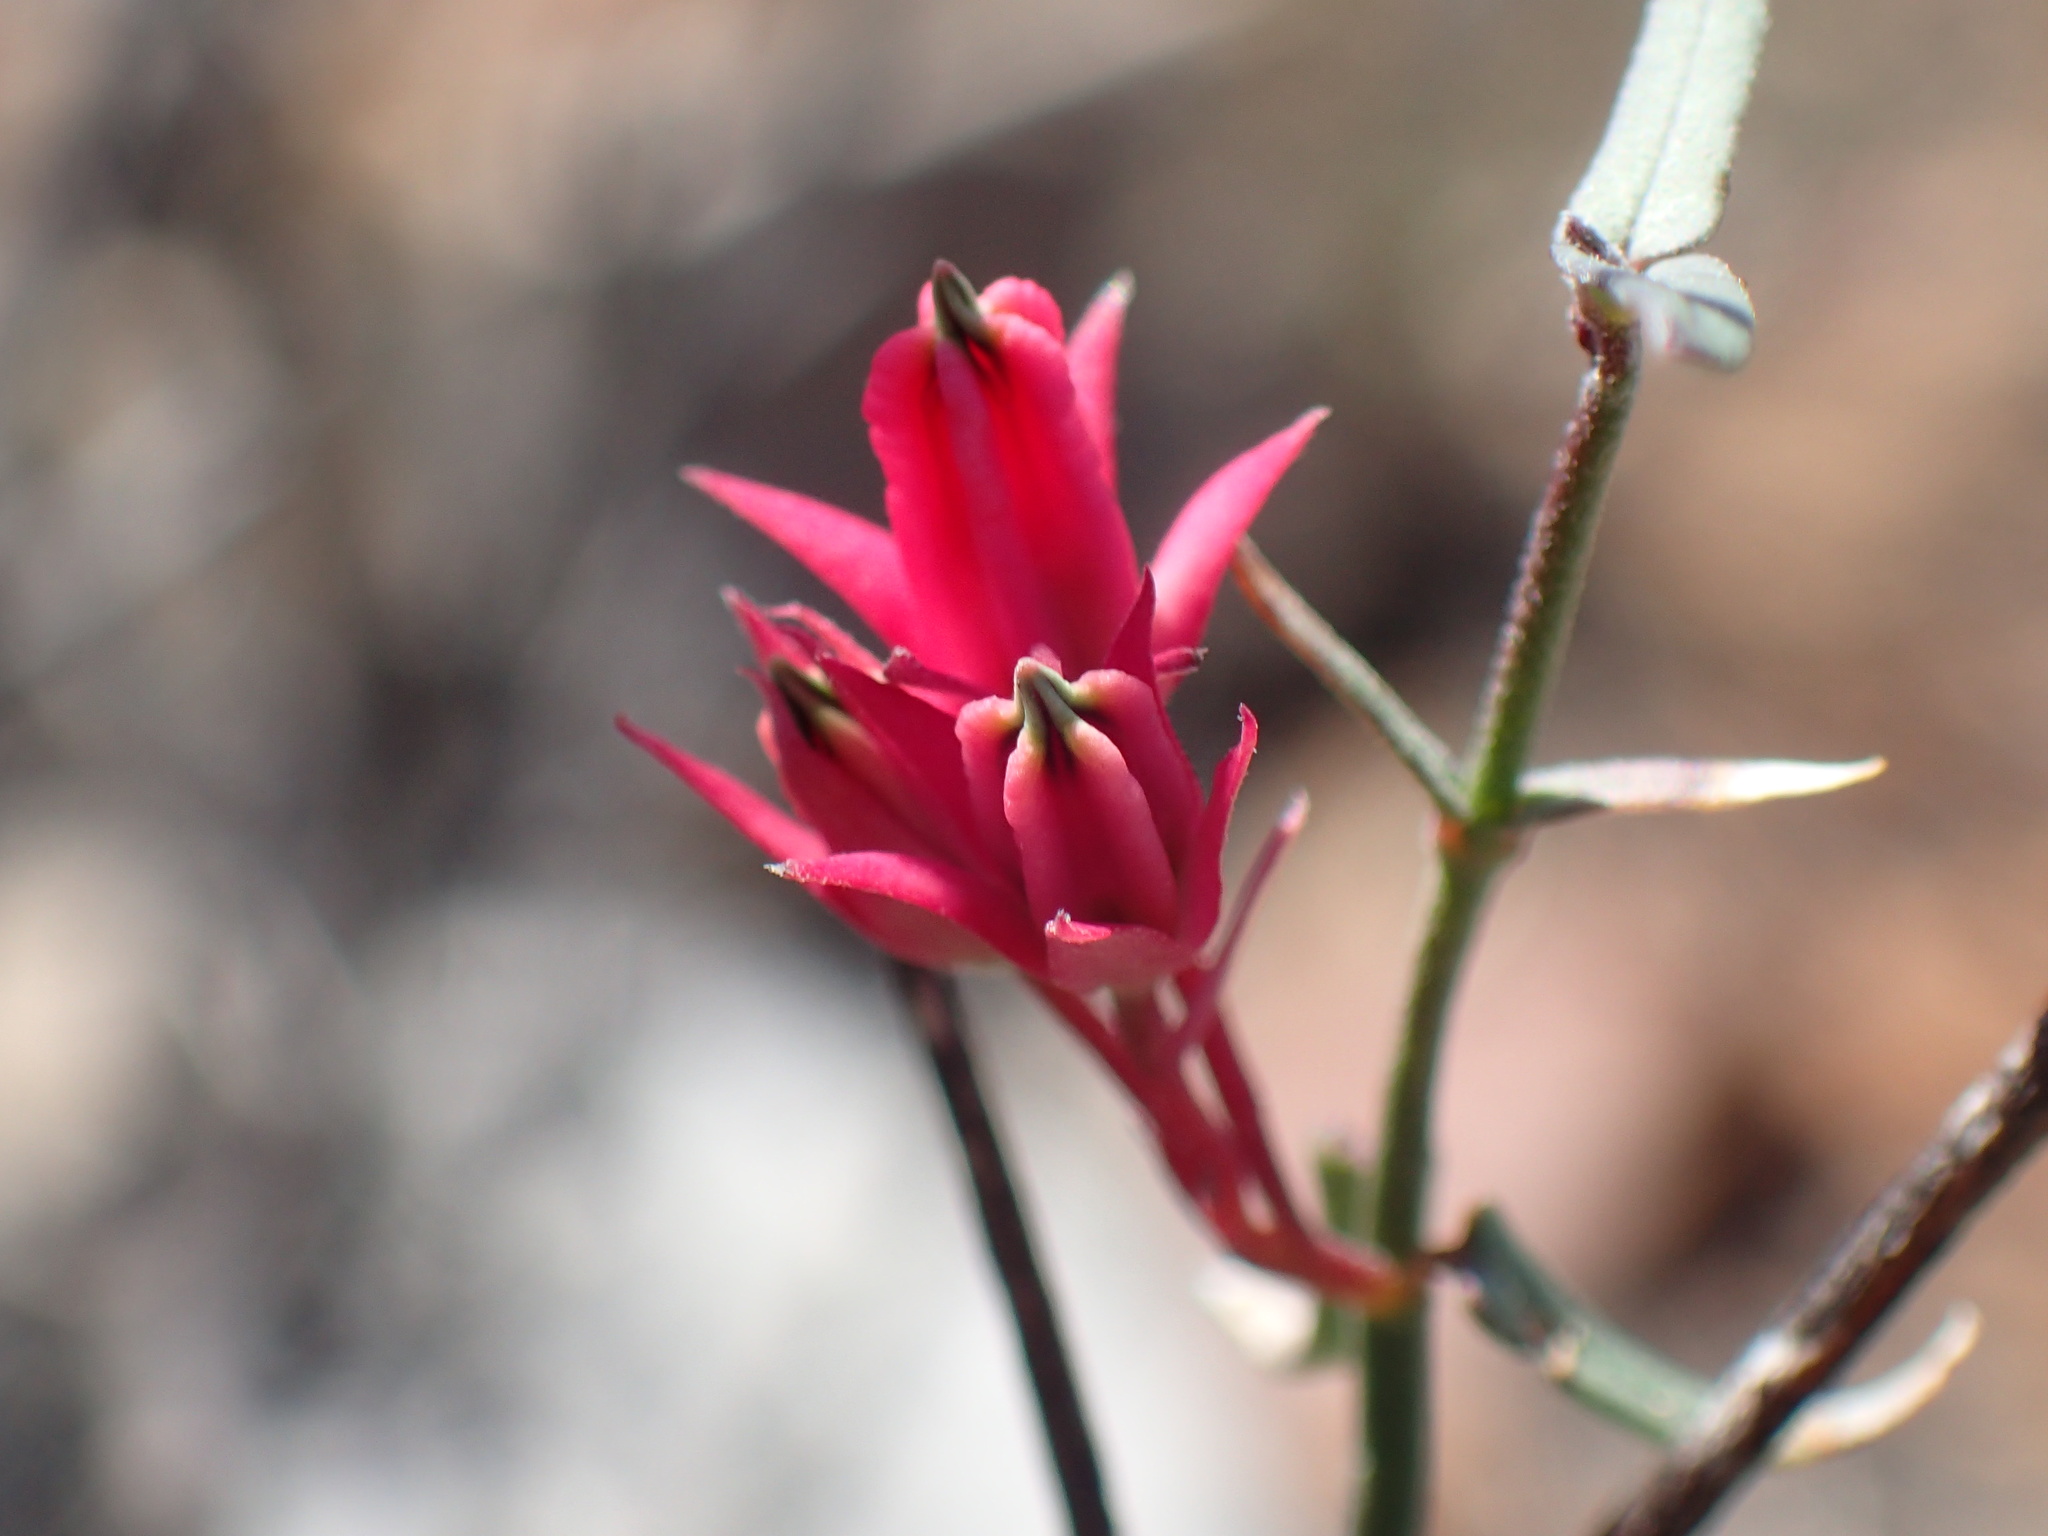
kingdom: Plantae
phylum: Tracheophyta
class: Magnoliopsida
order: Gentianales
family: Apocynaceae
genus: Microloma
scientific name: Microloma sagittatum
